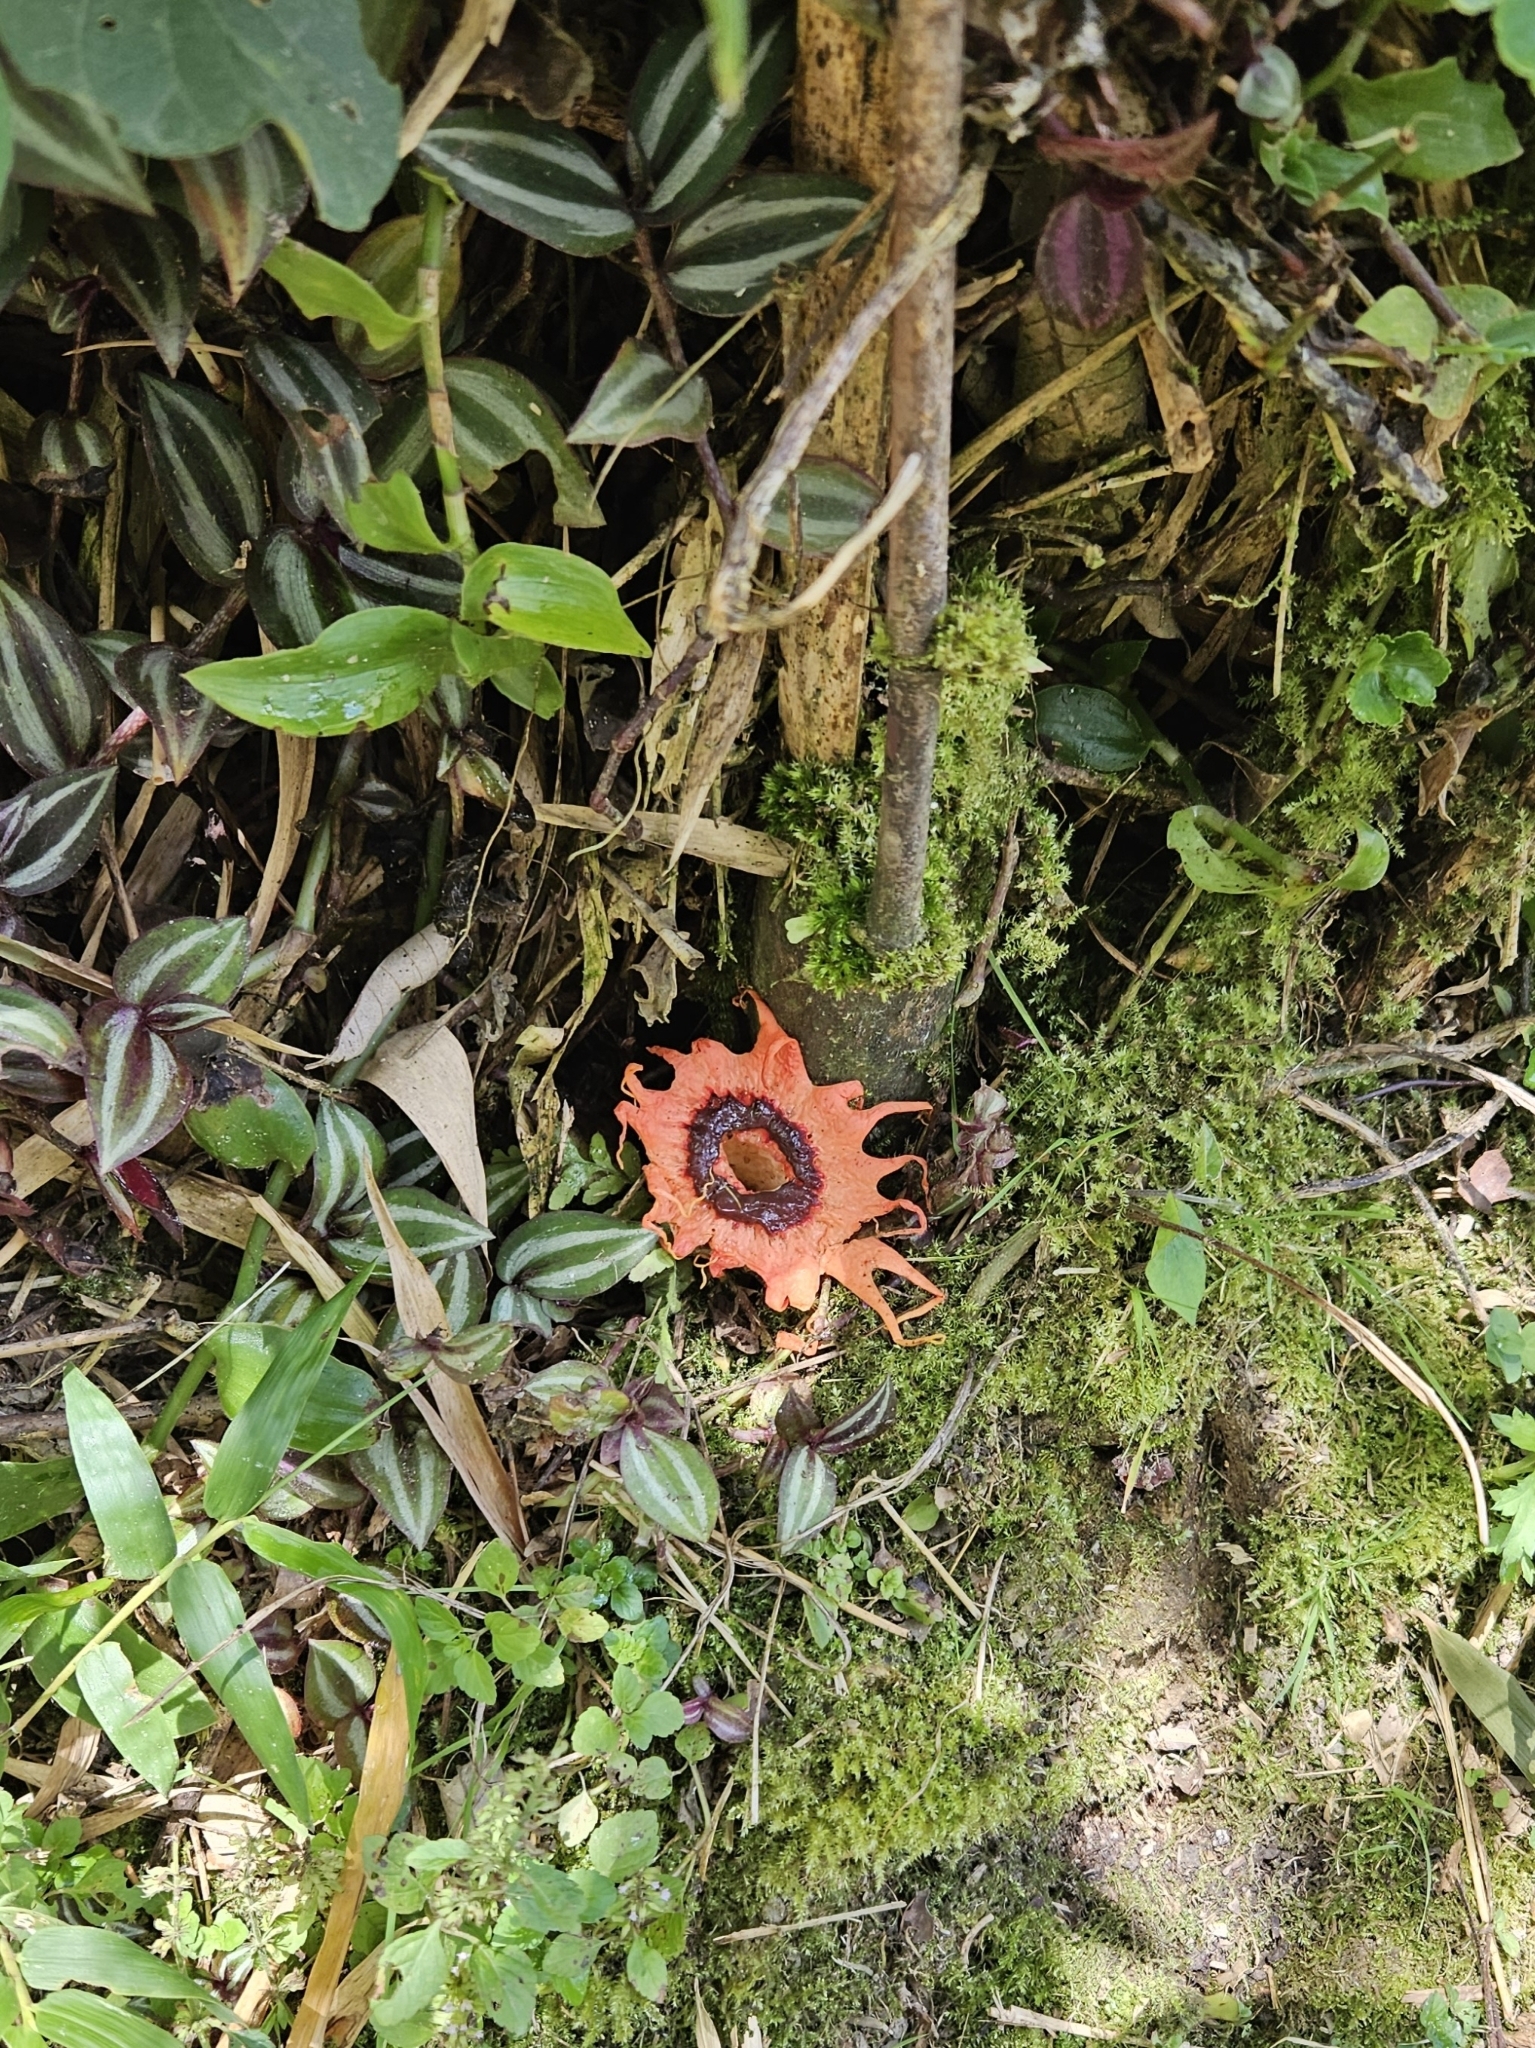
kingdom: Fungi
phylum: Basidiomycota
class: Agaricomycetes
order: Phallales
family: Phallaceae
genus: Aseroe
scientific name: Aseroe rubra
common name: Starfish fungus
